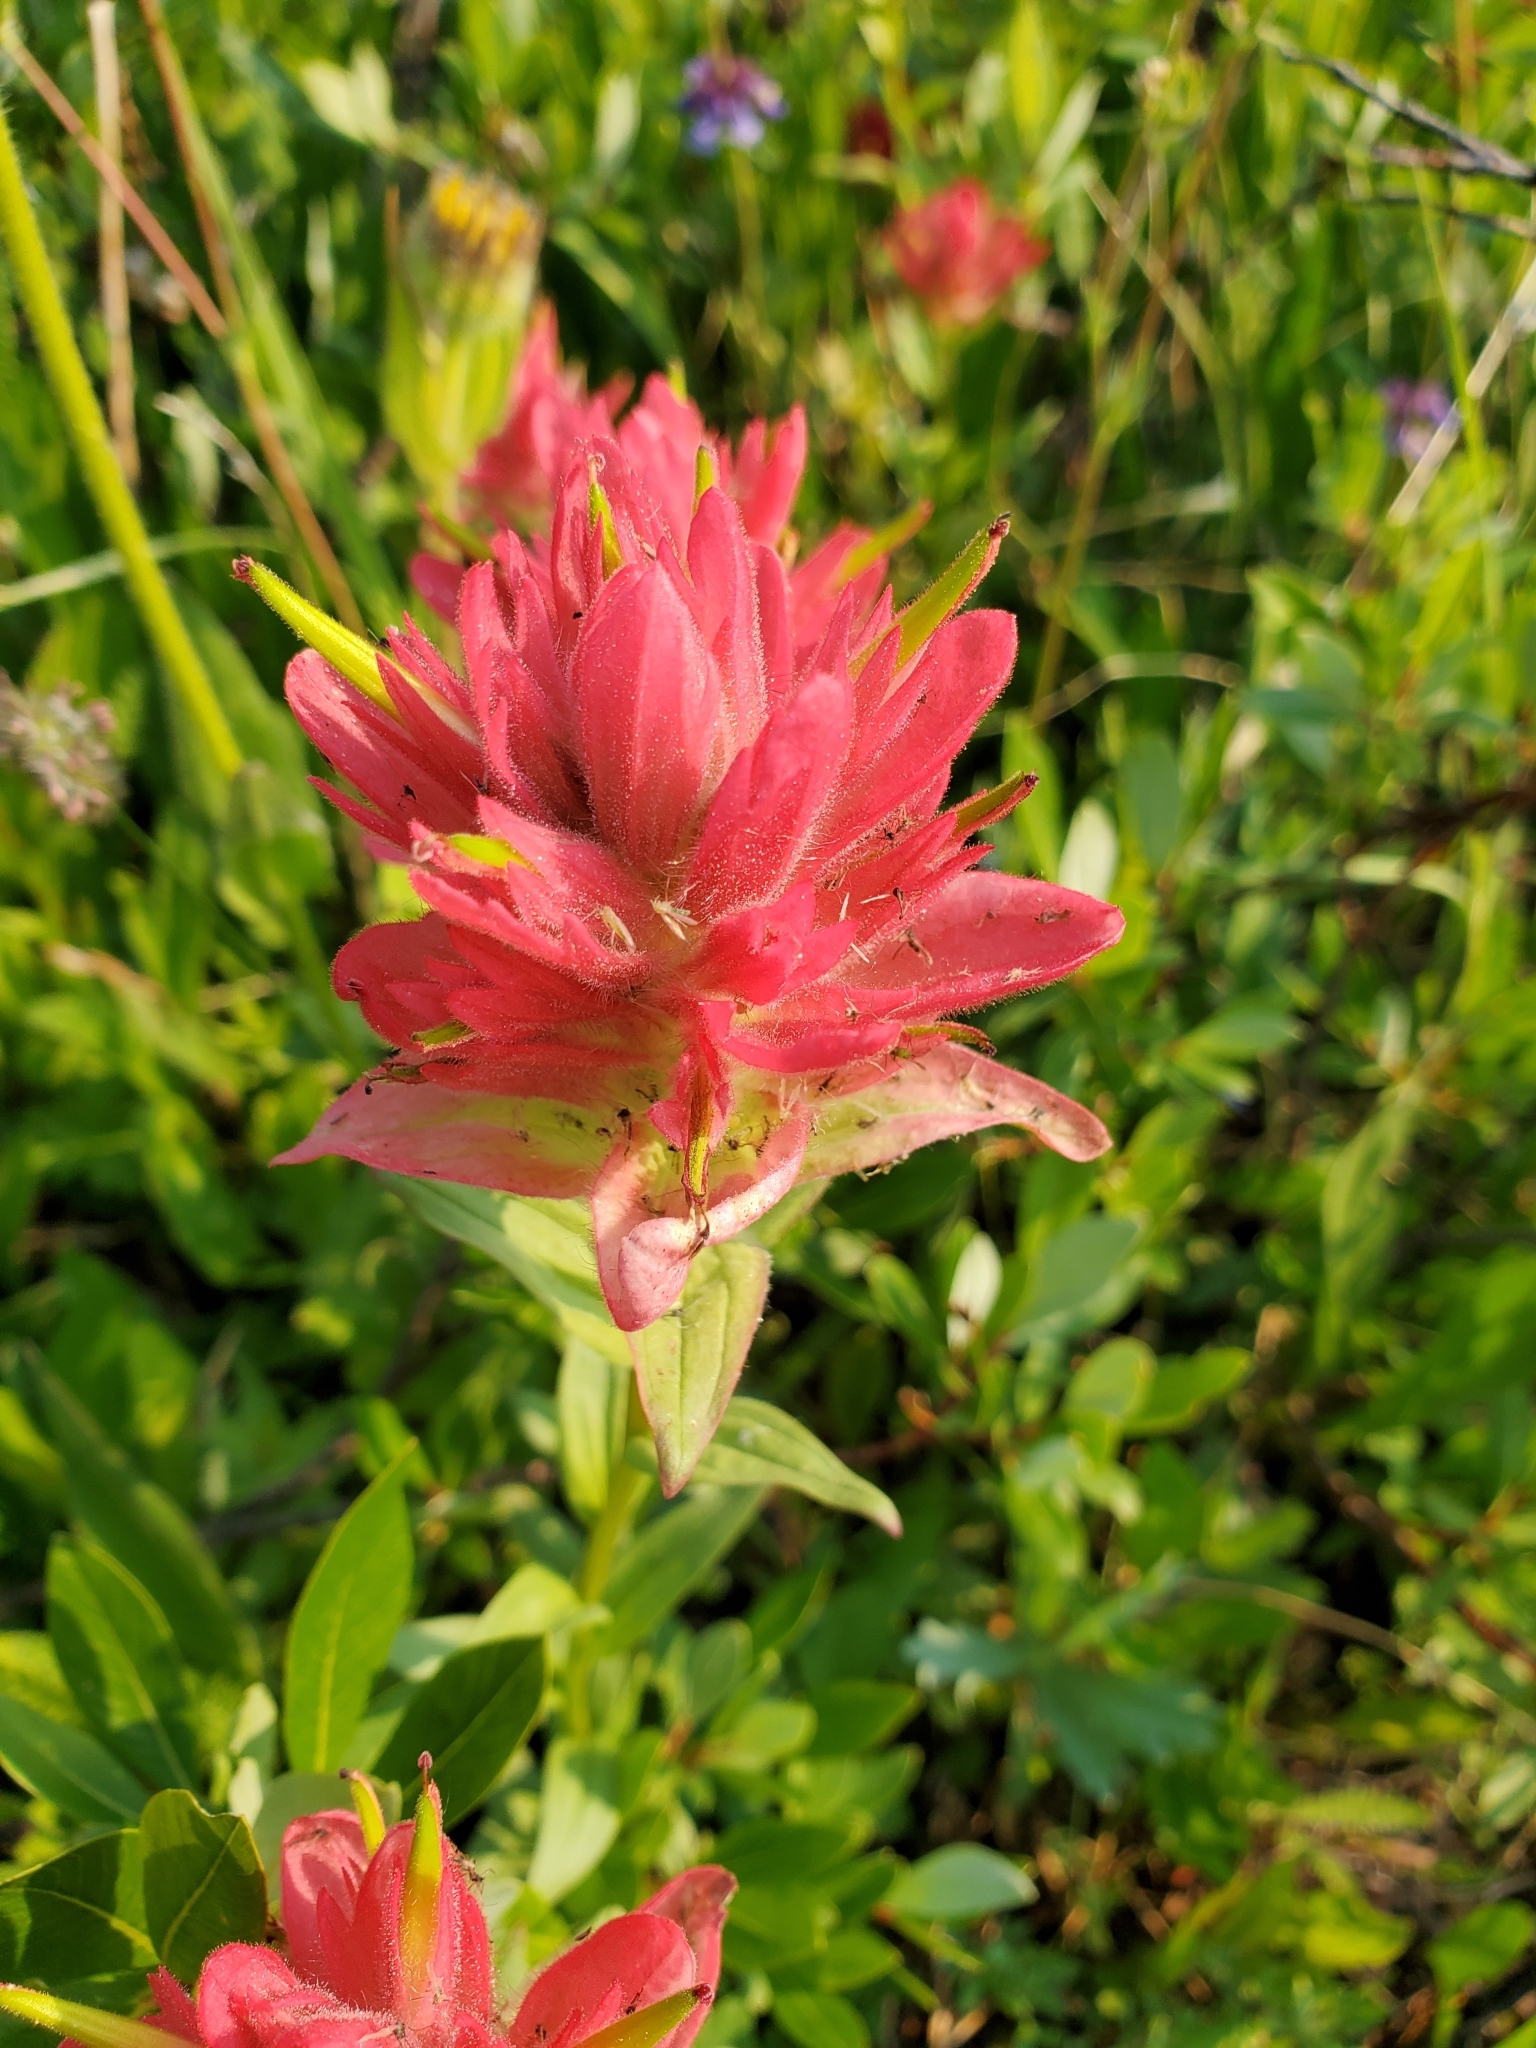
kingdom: Plantae
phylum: Tracheophyta
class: Magnoliopsida
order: Lamiales
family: Orobanchaceae
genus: Castilleja
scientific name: Castilleja miniata
